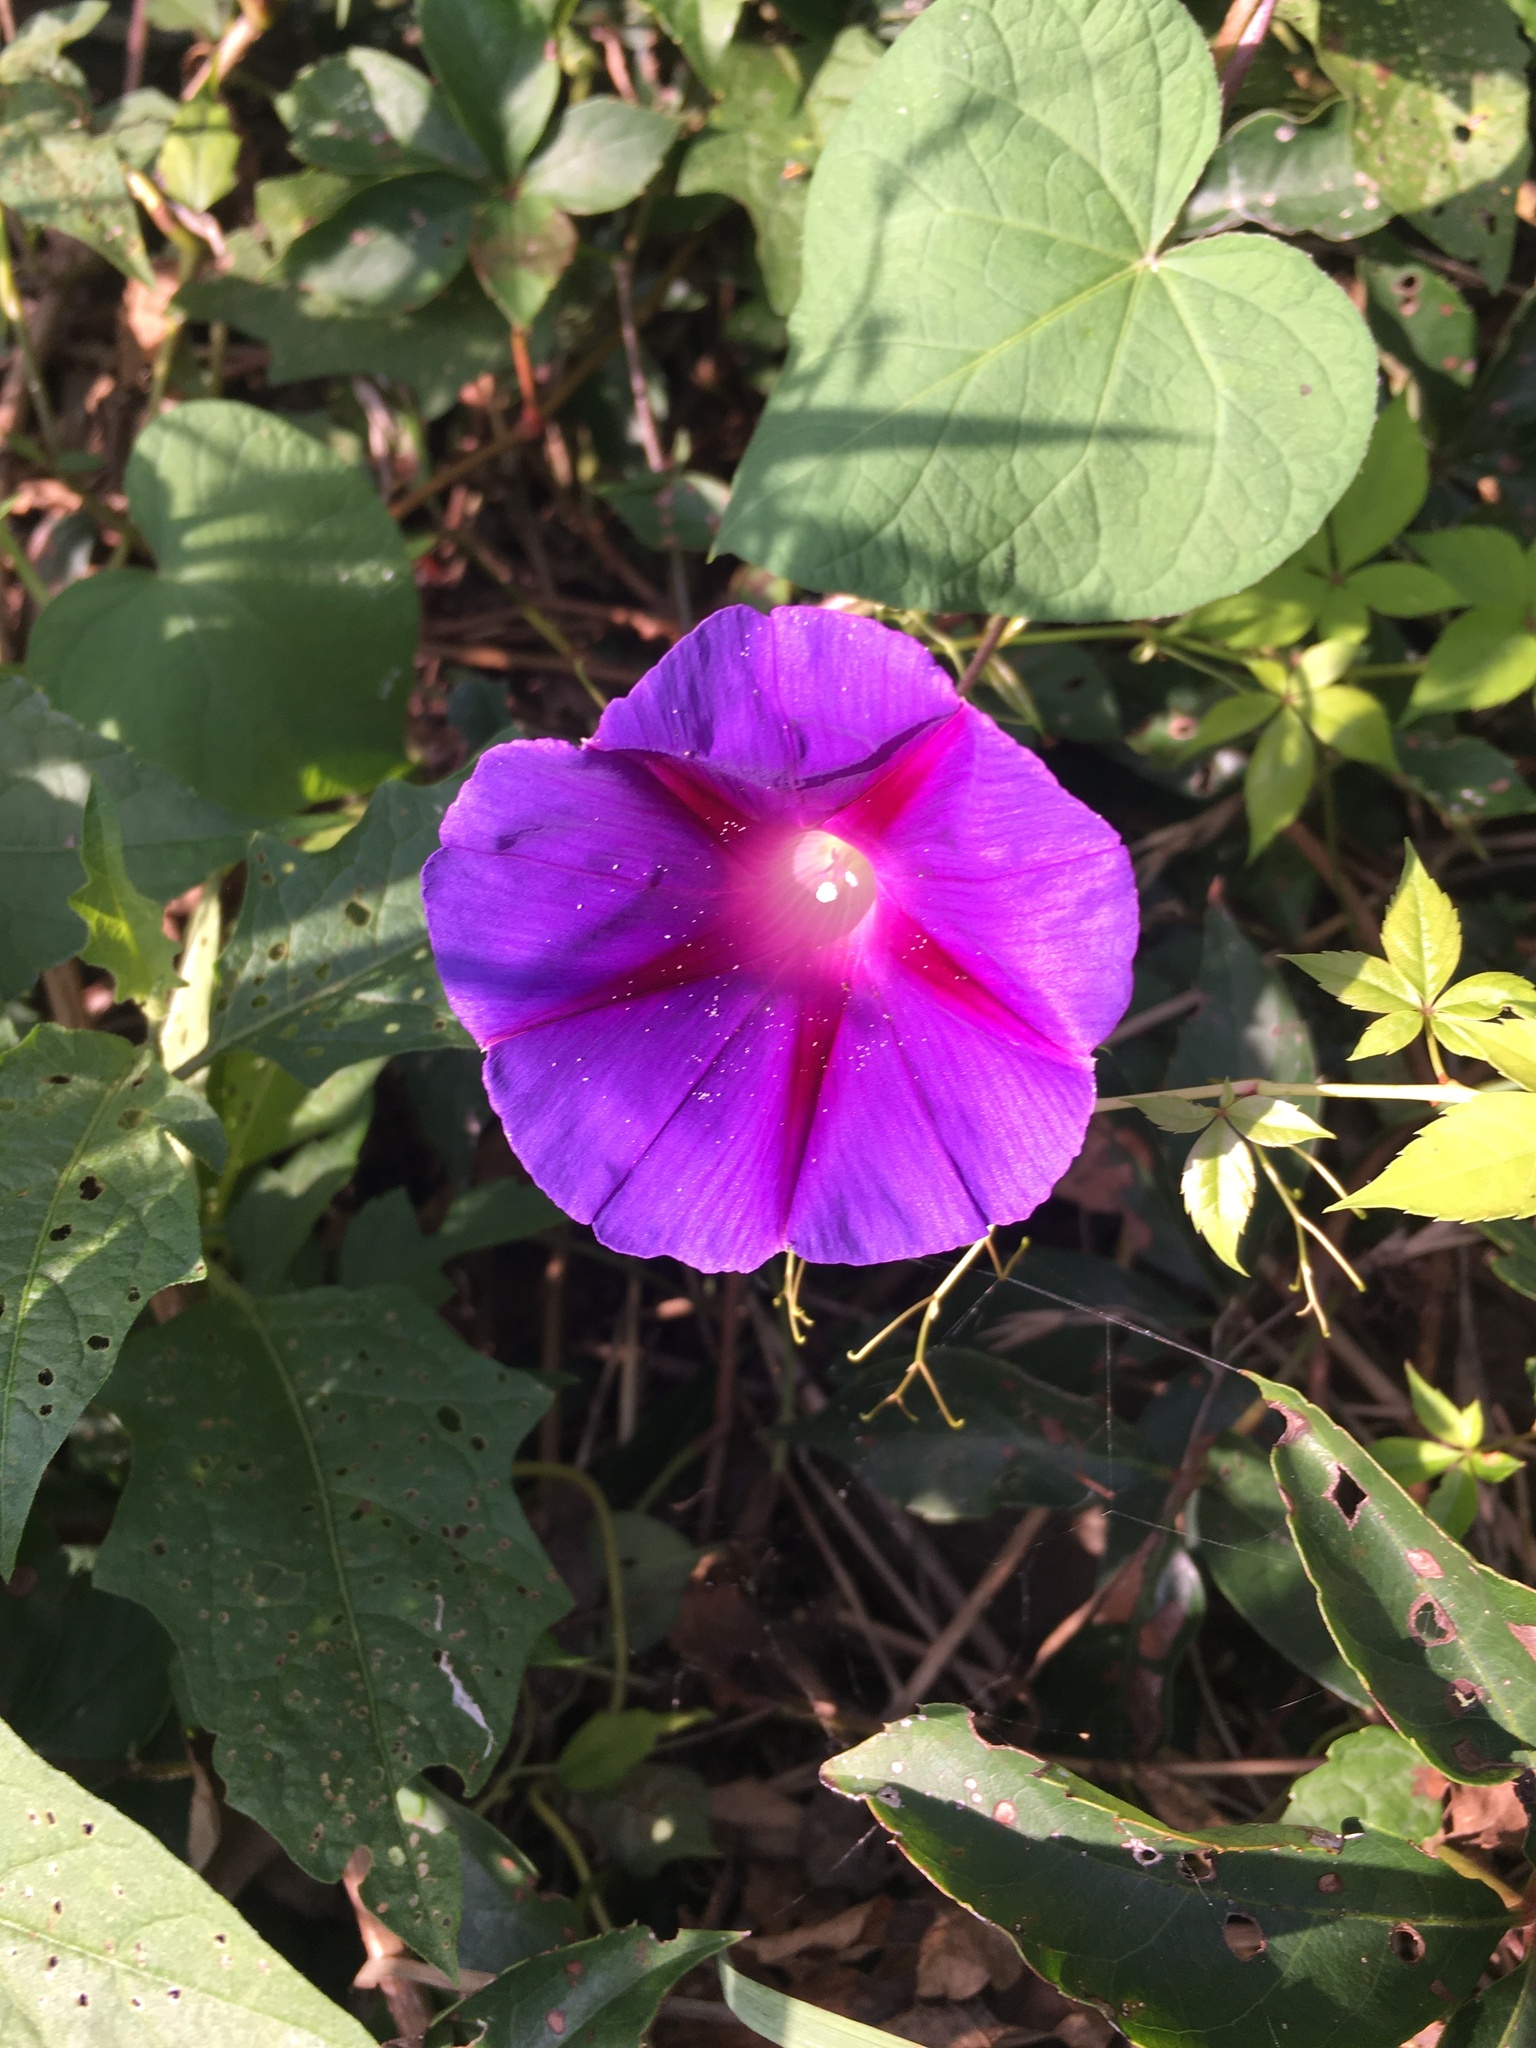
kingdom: Plantae
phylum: Tracheophyta
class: Magnoliopsida
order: Solanales
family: Convolvulaceae
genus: Ipomoea
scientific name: Ipomoea purpurea
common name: Common morning-glory
